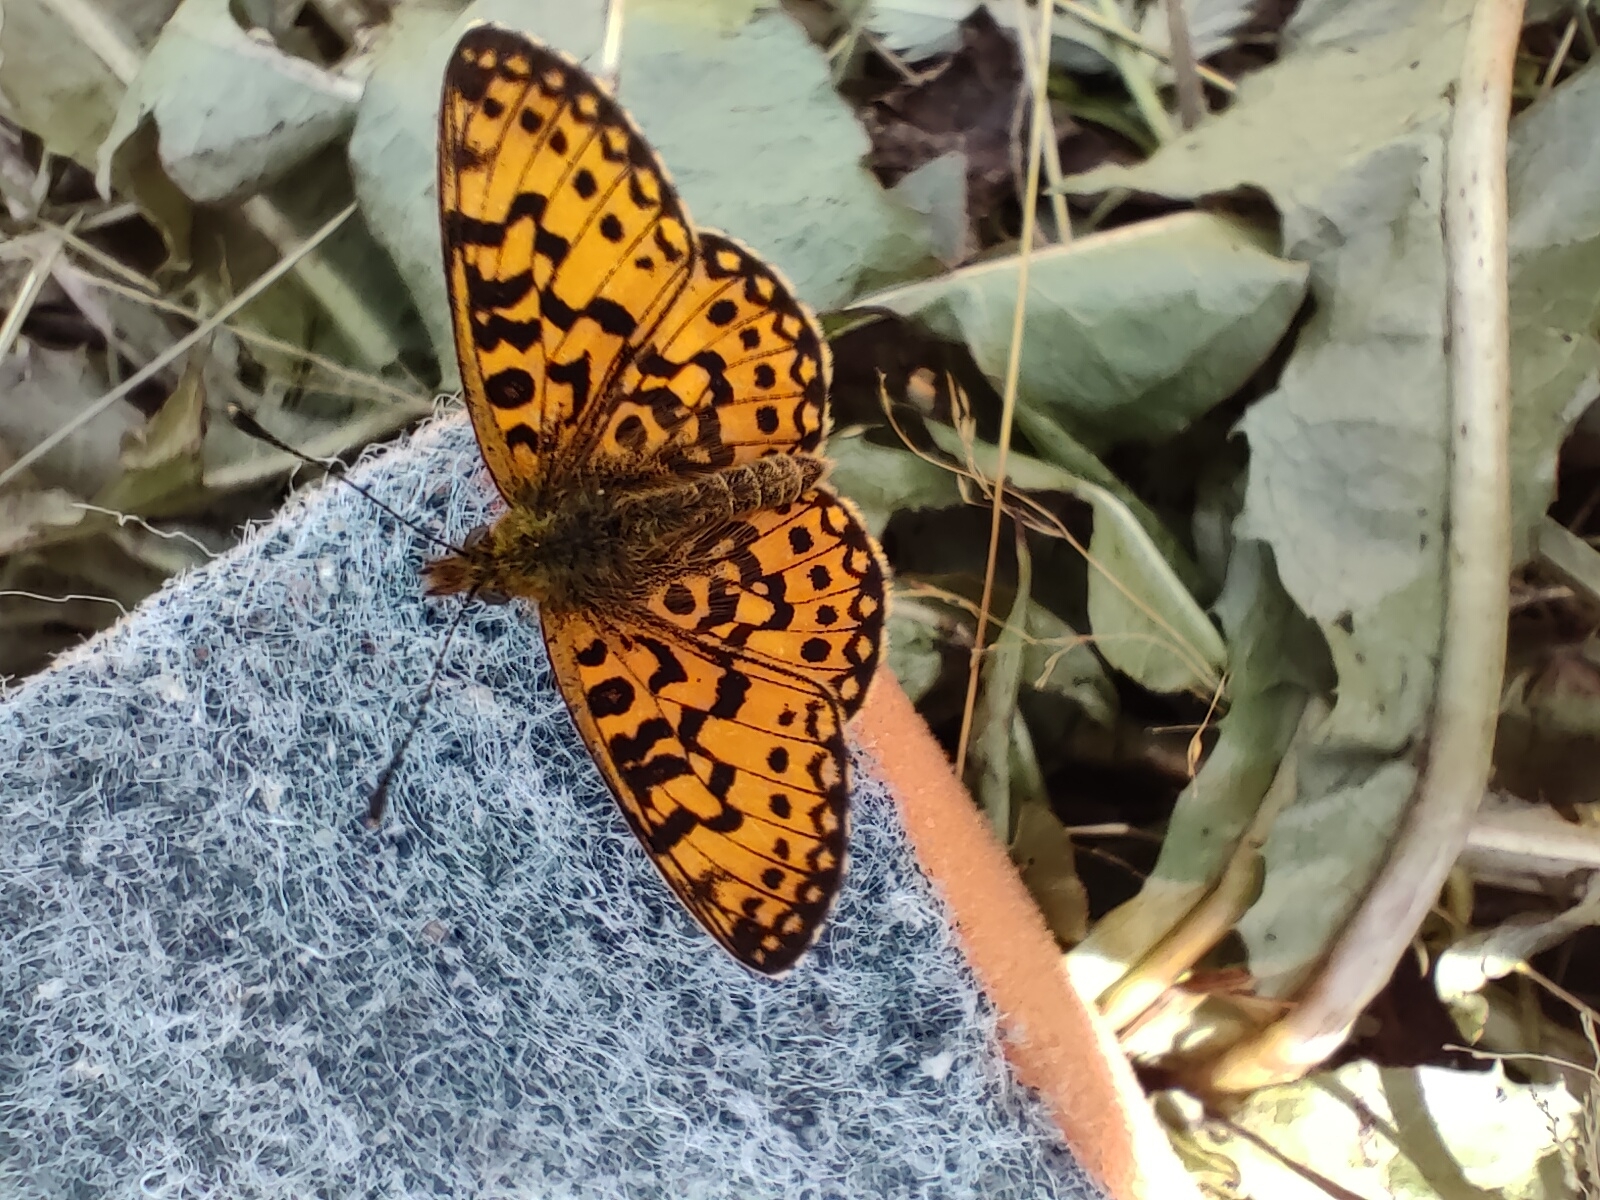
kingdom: Animalia
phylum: Arthropoda
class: Insecta
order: Lepidoptera
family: Nymphalidae
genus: Boloria
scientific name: Boloria selene
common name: Small pearl-bordered fritillary
